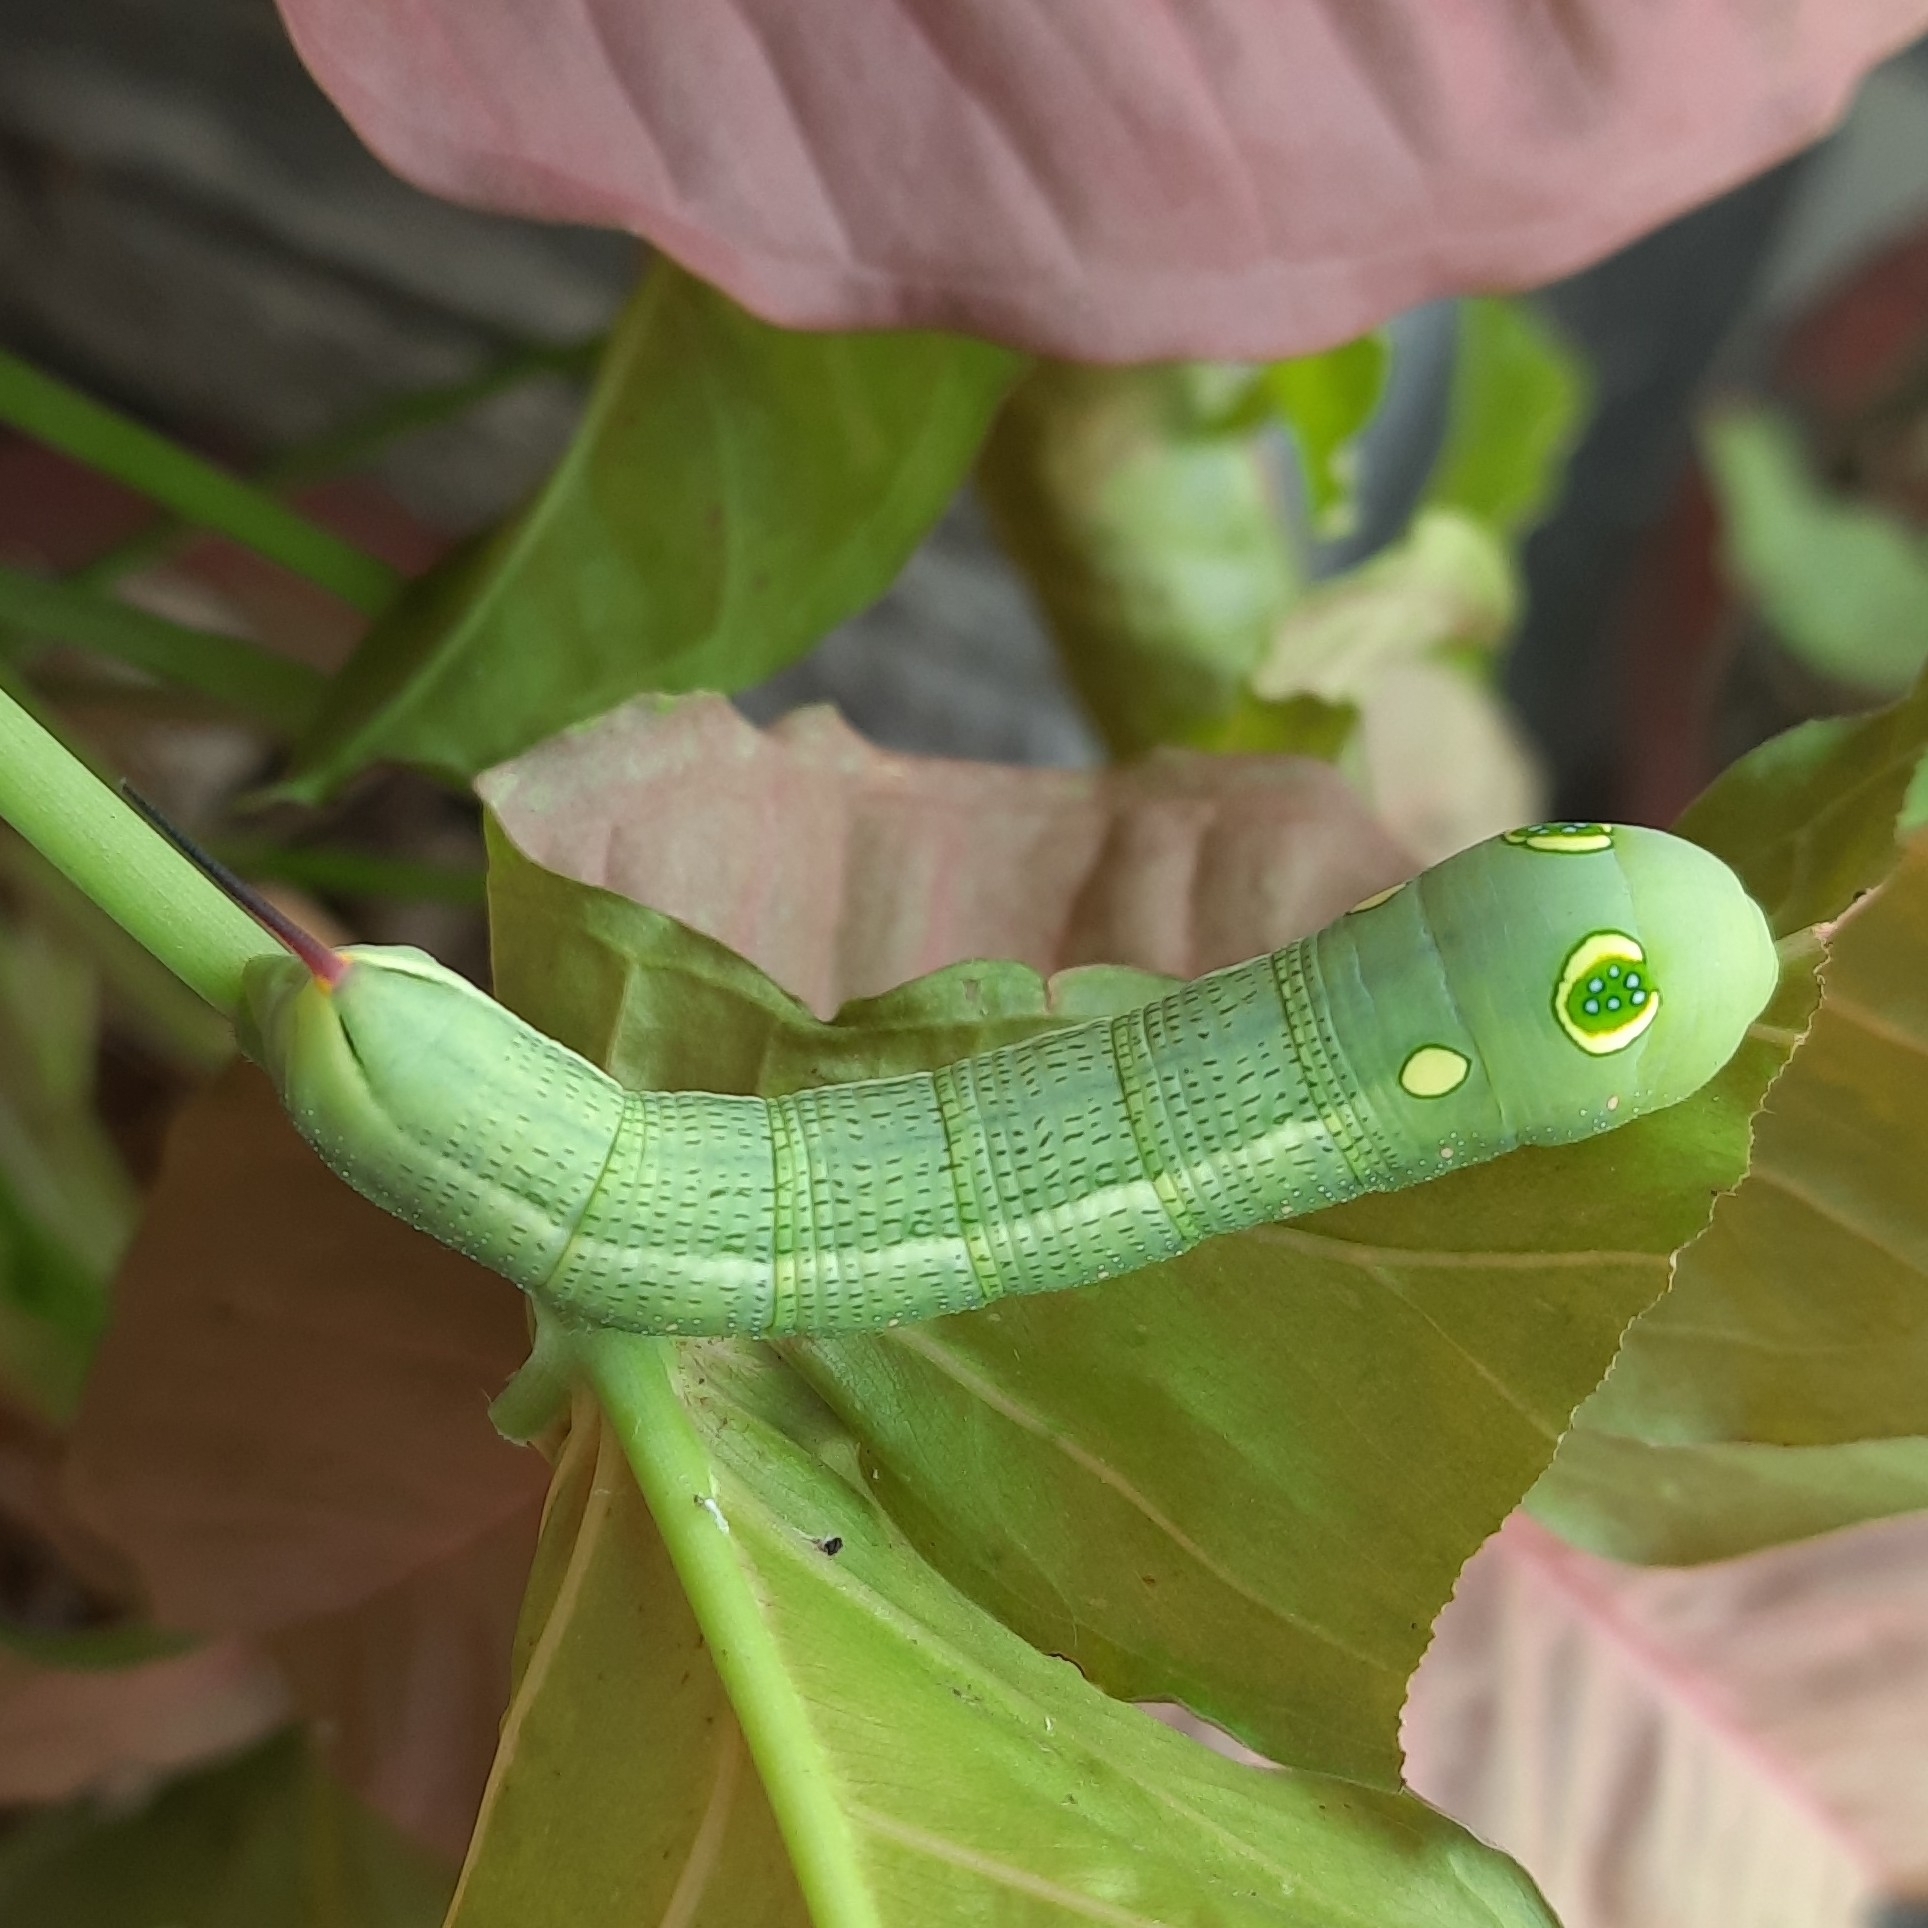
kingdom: Animalia
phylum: Arthropoda
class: Insecta
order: Lepidoptera
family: Sphingidae
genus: Hippotion
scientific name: Hippotion celerio
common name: Silver-striped hawk-moth
